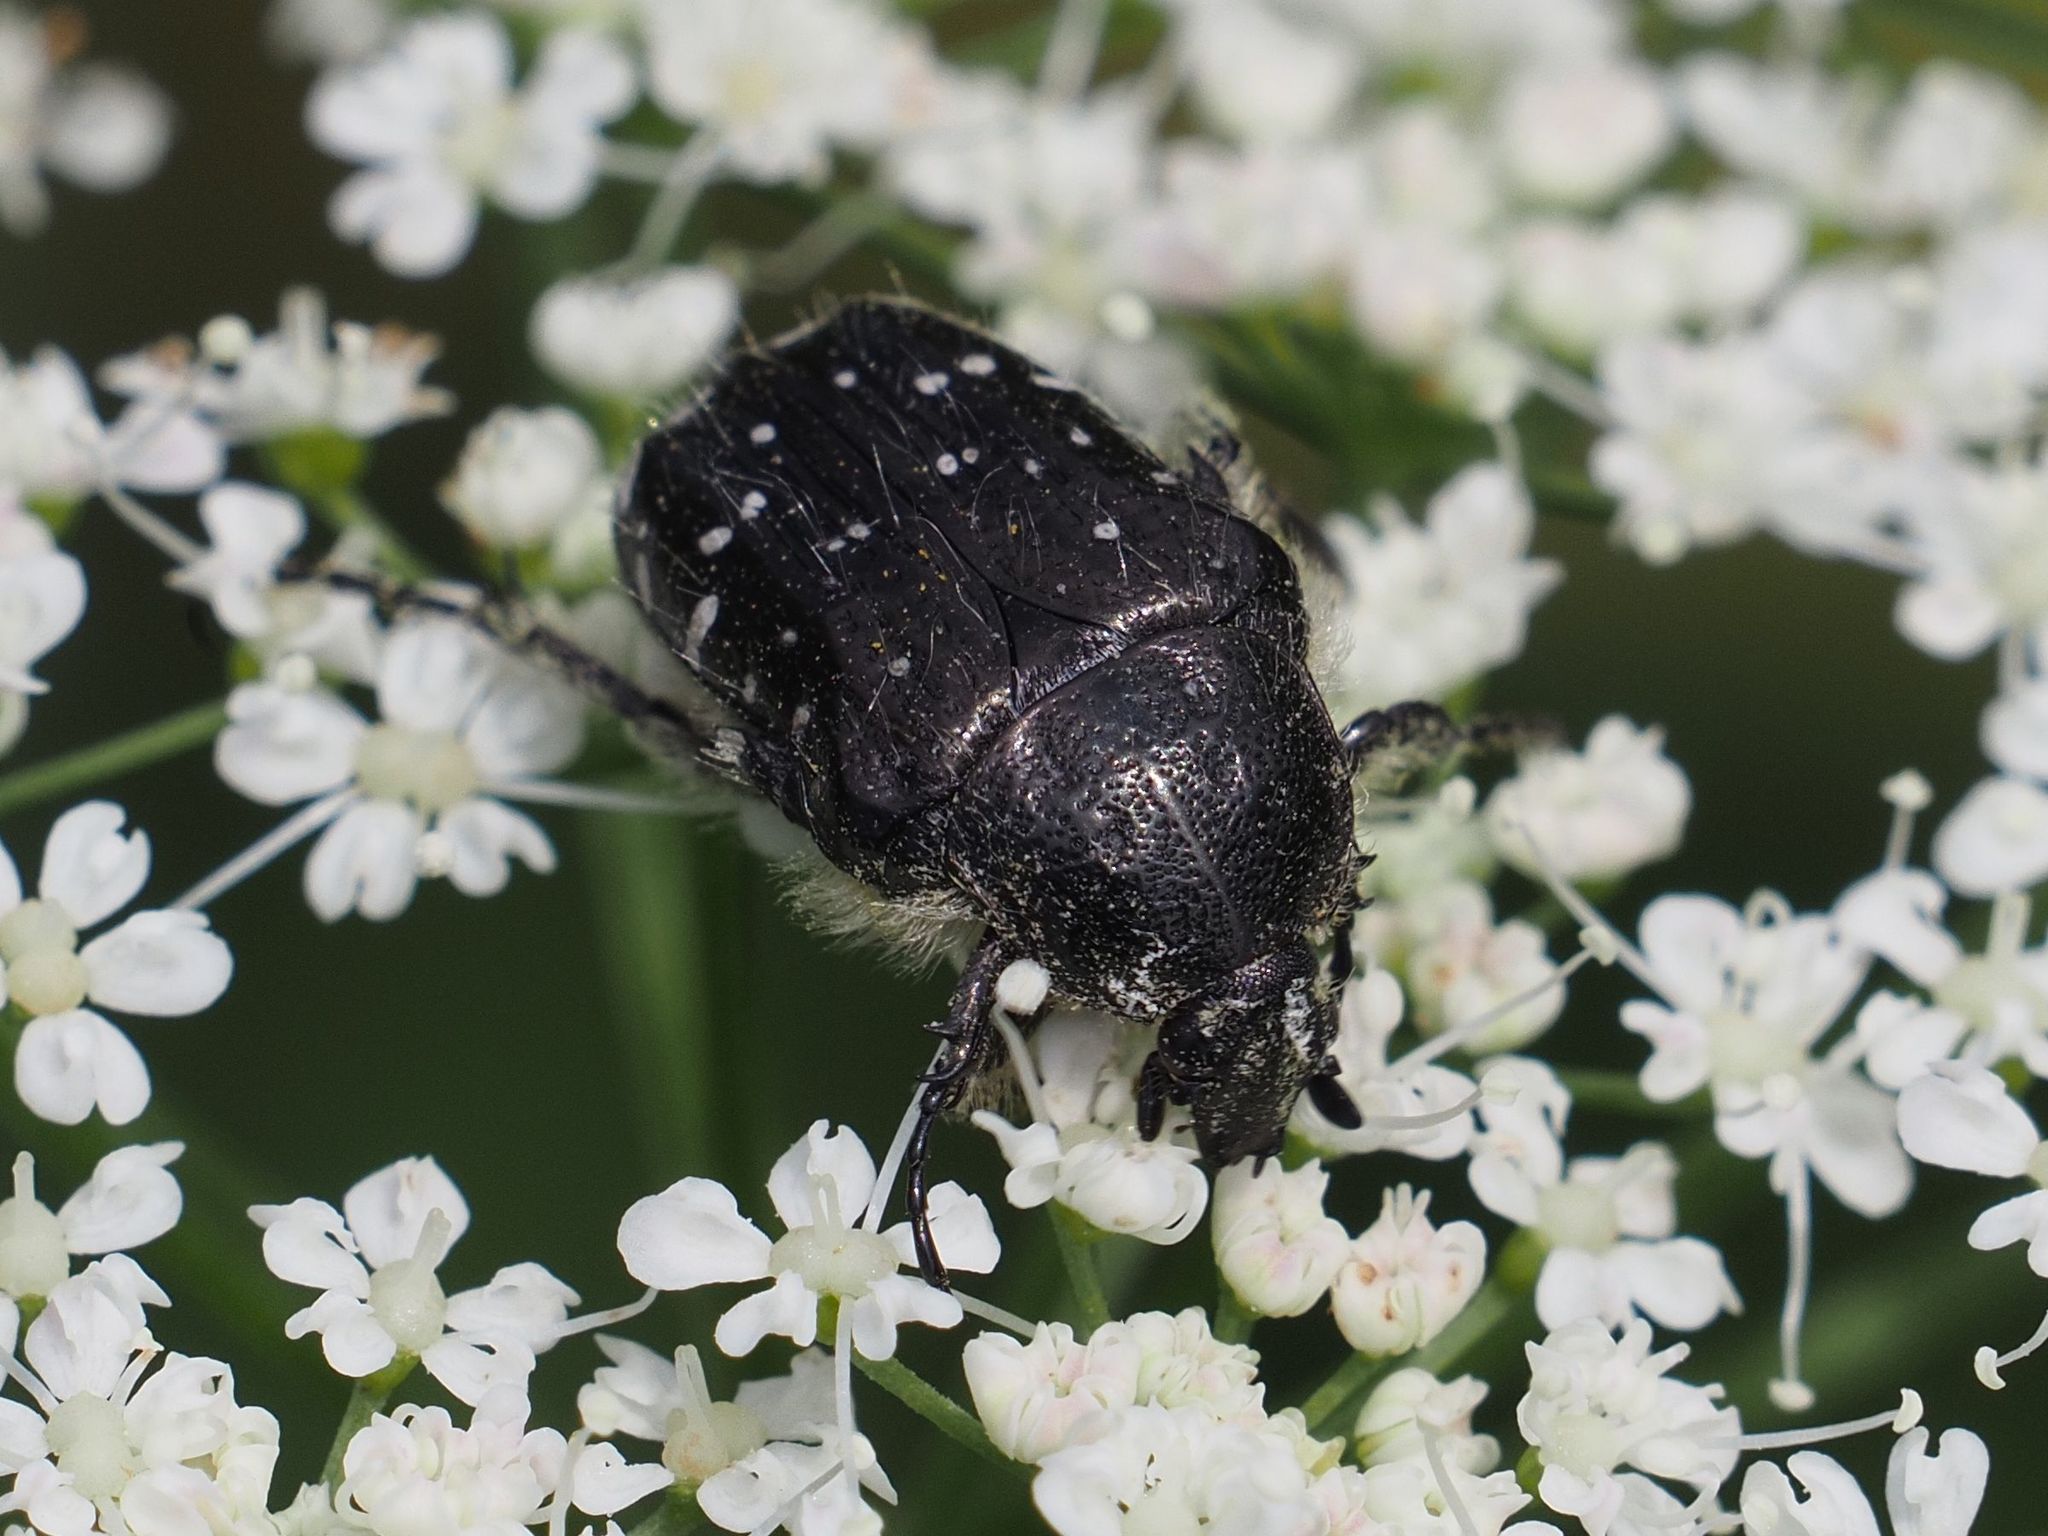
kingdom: Animalia
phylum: Arthropoda
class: Insecta
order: Coleoptera
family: Scarabaeidae
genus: Oxythyrea
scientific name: Oxythyrea funesta
